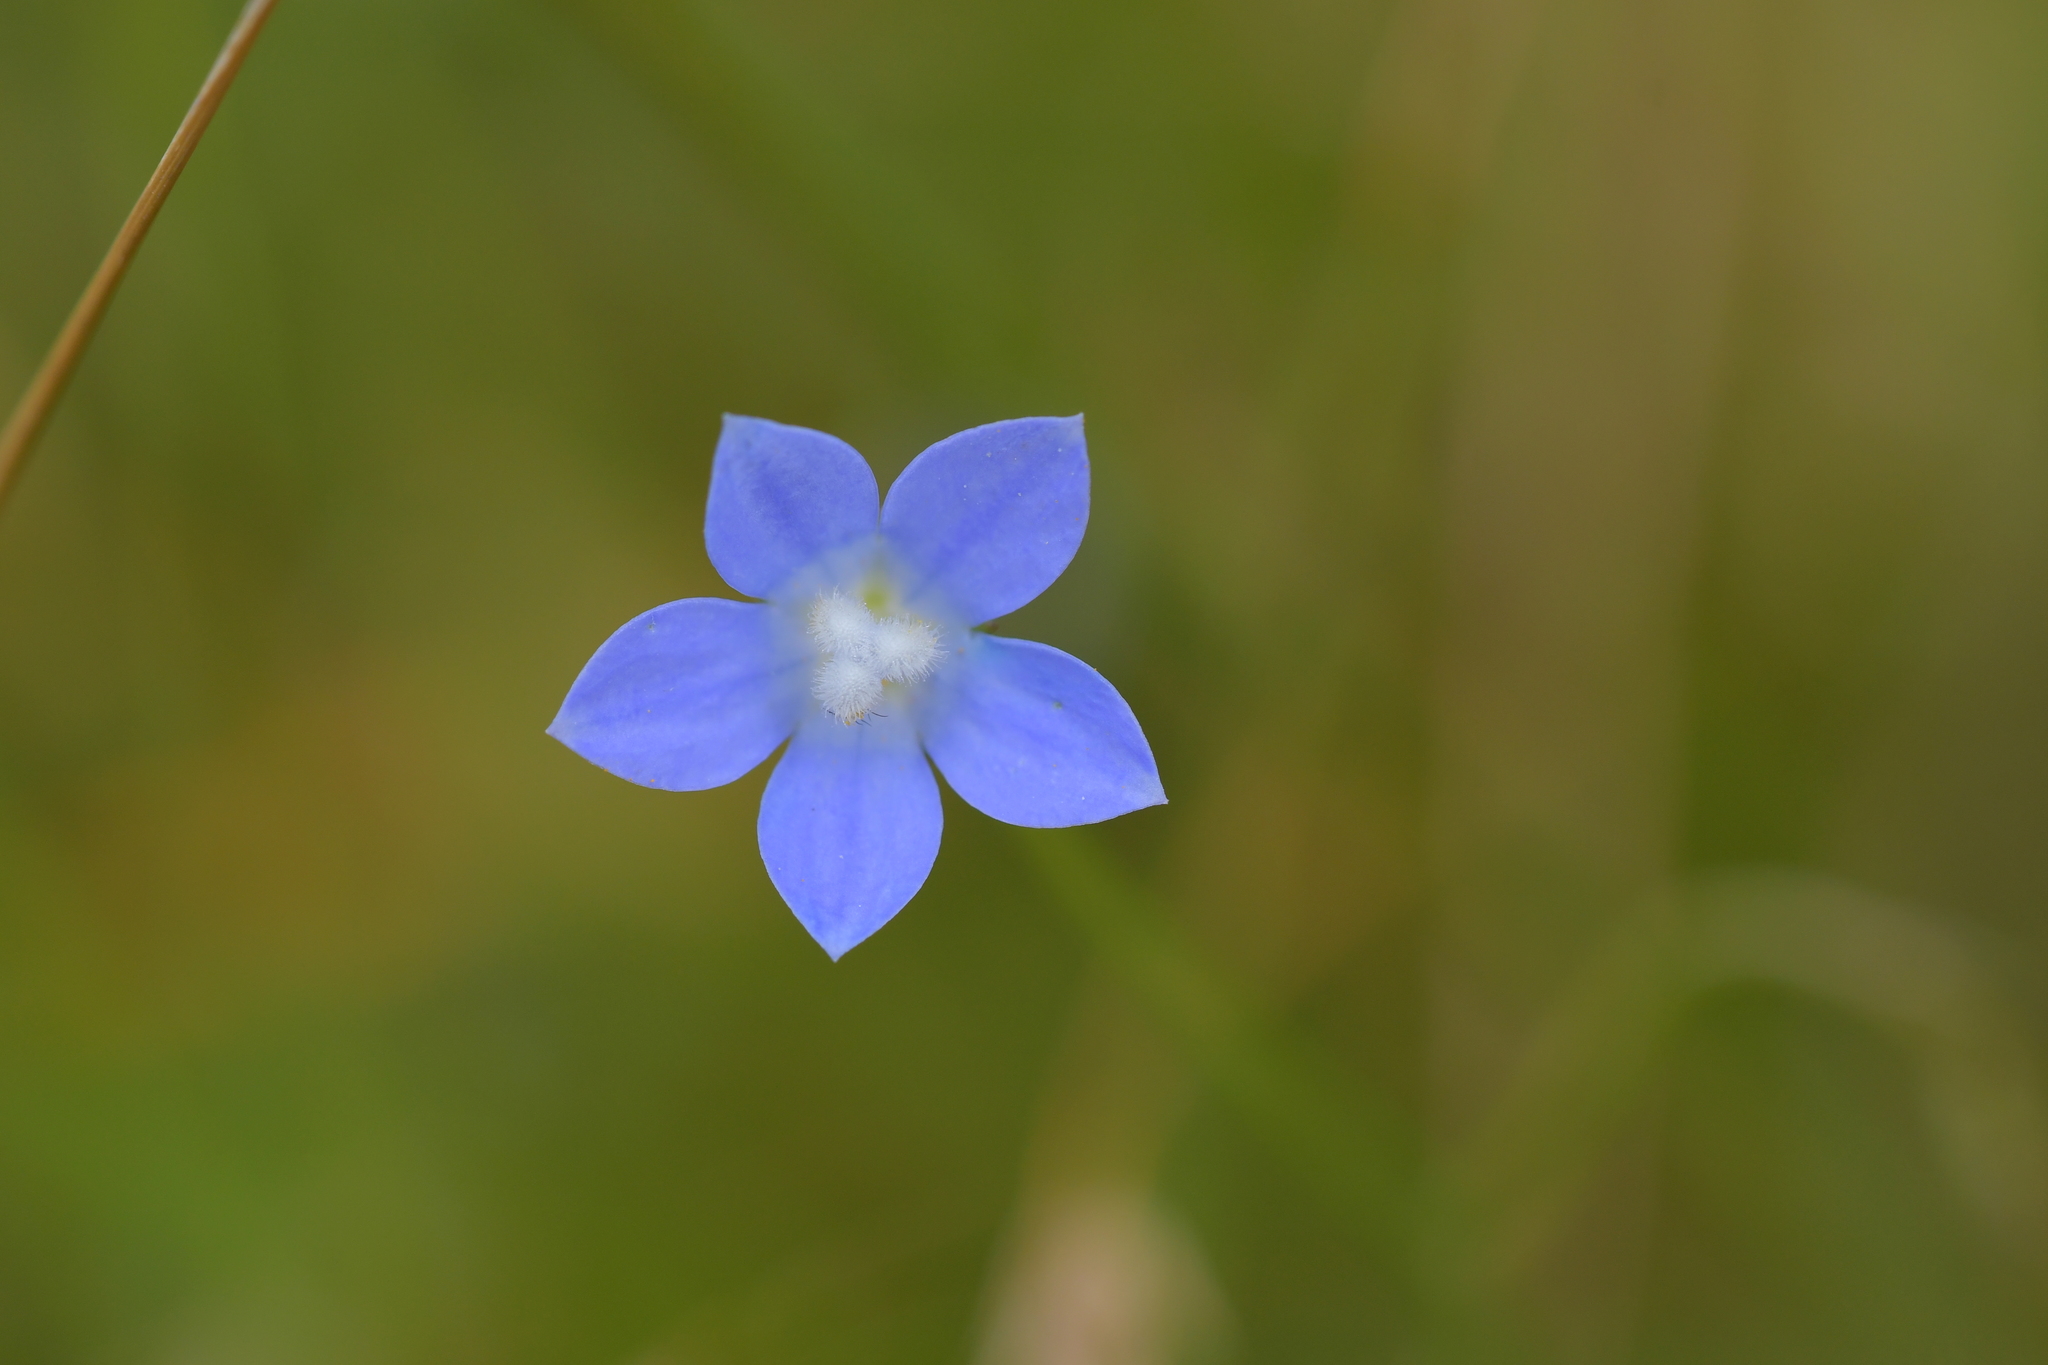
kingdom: Plantae
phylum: Tracheophyta
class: Magnoliopsida
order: Asterales
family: Campanulaceae
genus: Wahlenbergia
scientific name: Wahlenbergia violacea
